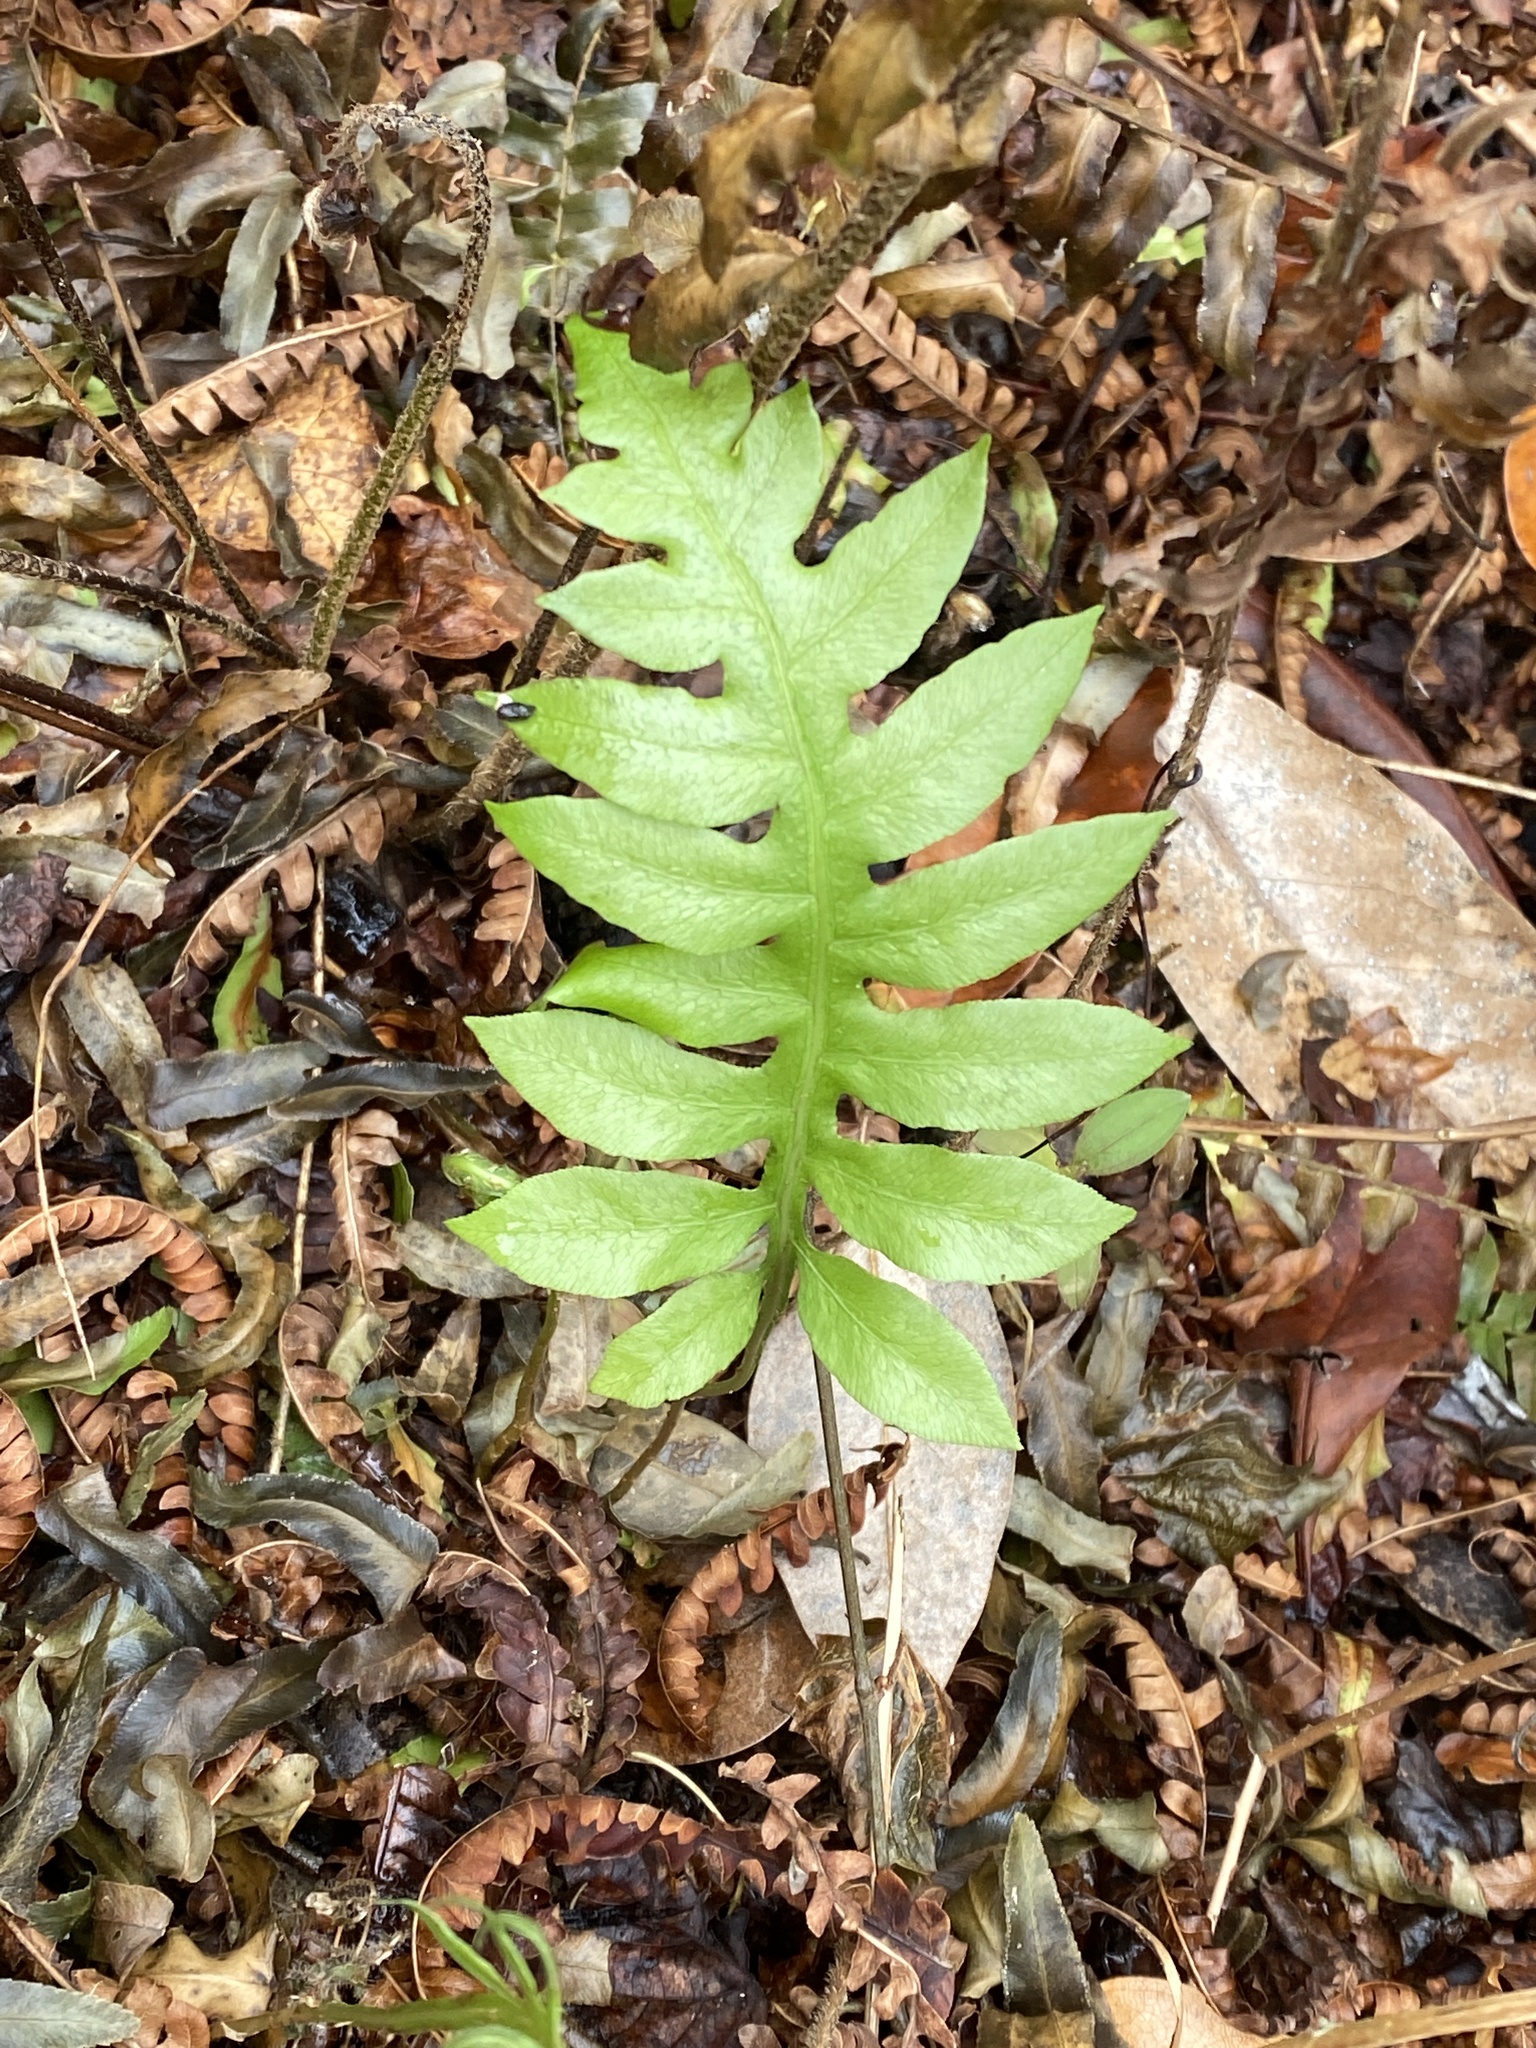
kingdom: Plantae
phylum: Tracheophyta
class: Polypodiopsida
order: Polypodiales
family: Blechnaceae
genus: Lorinseria
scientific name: Lorinseria areolata
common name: Dwarf chain fern
